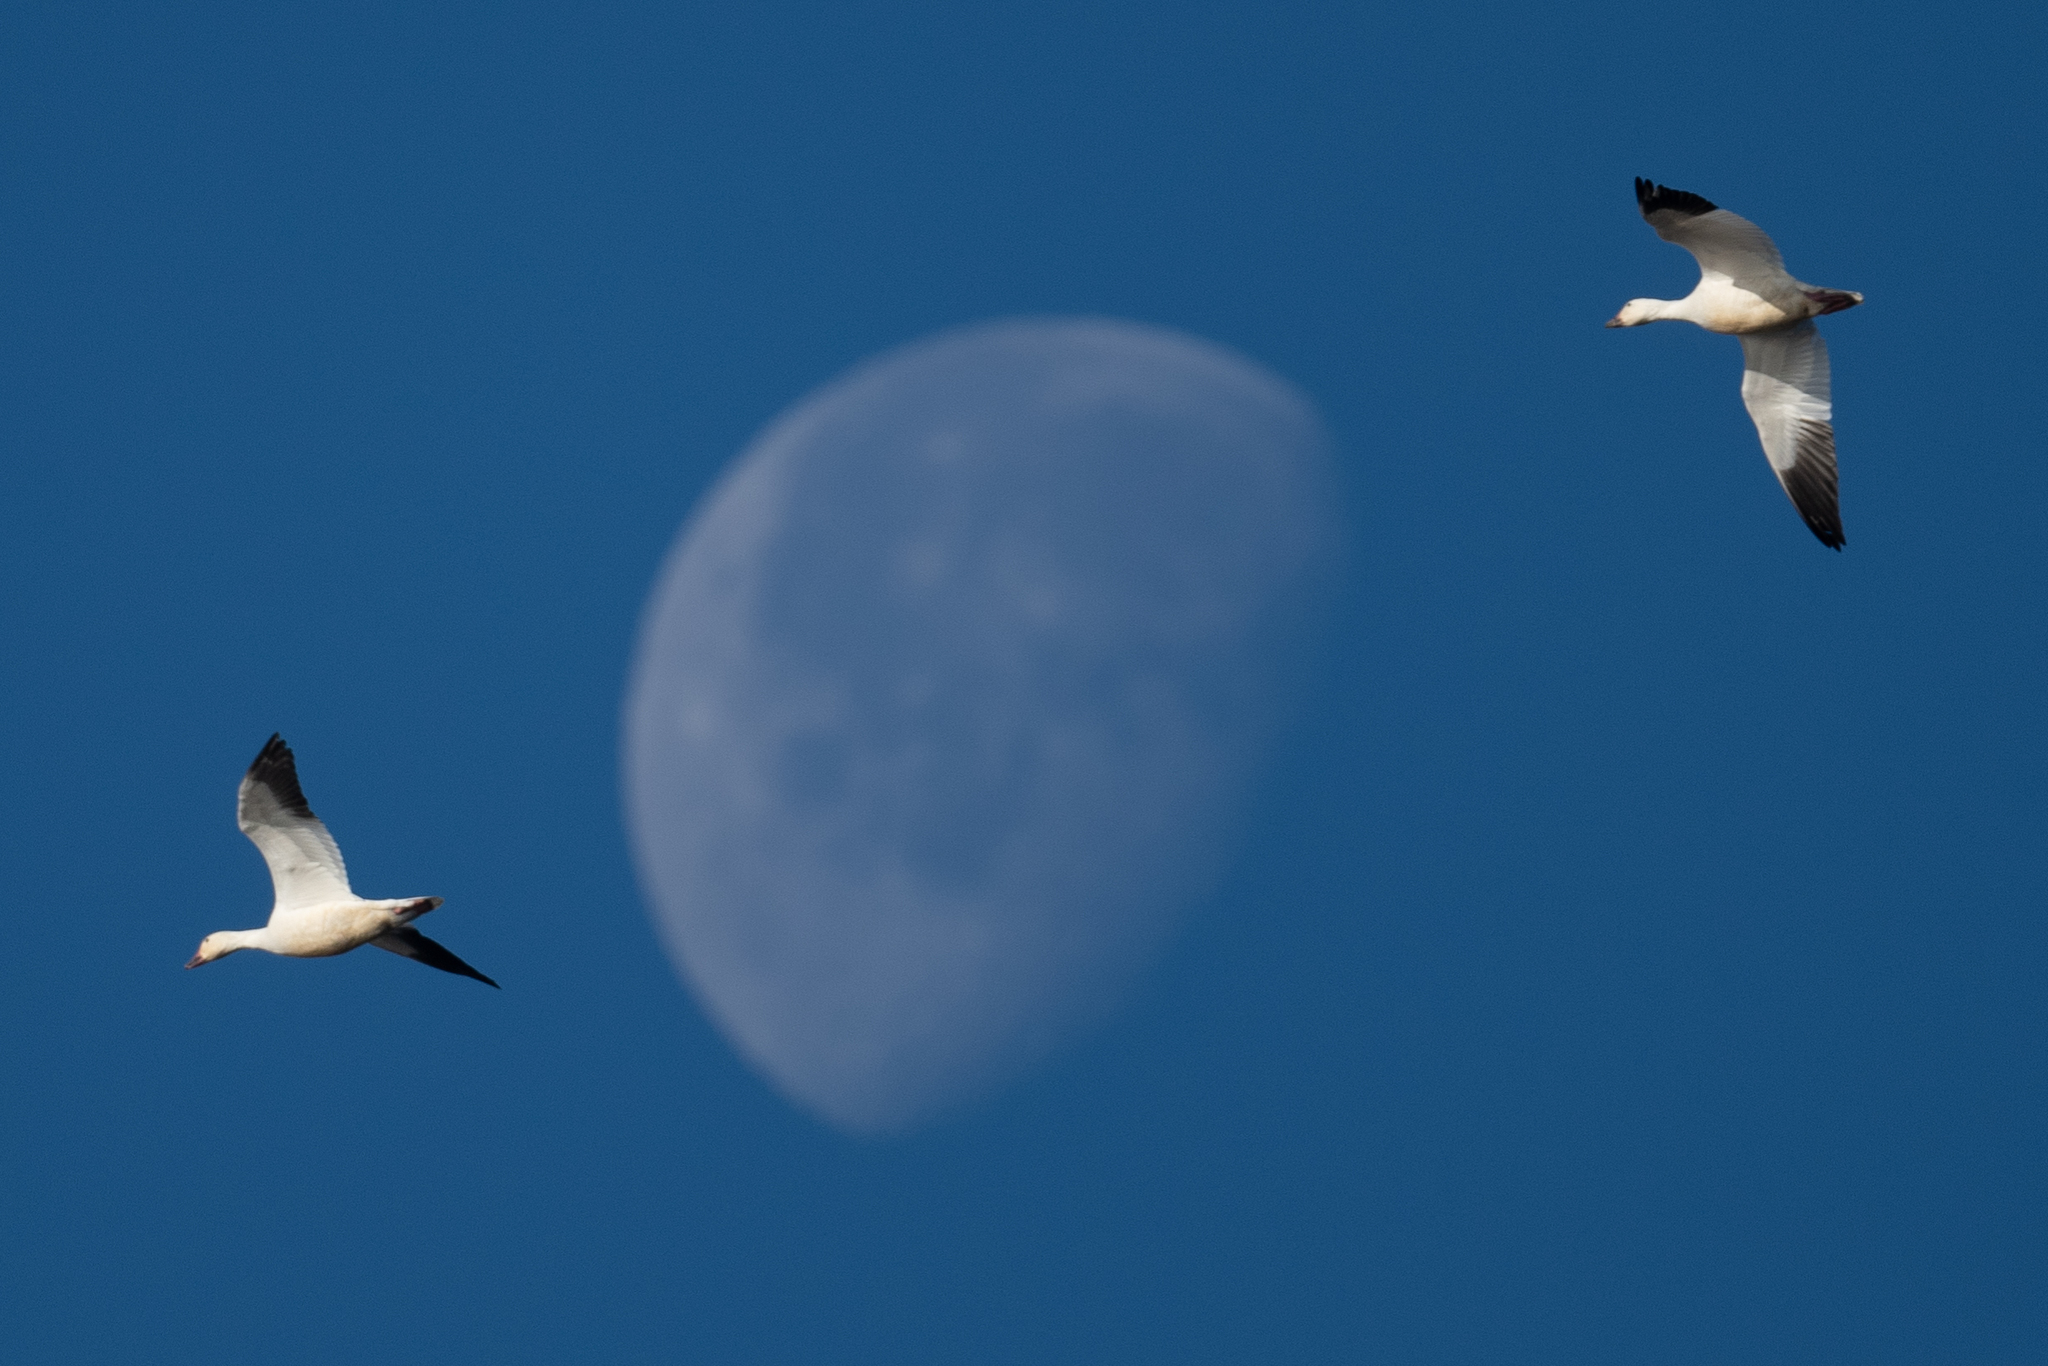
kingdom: Animalia
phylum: Chordata
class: Aves
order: Anseriformes
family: Anatidae
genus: Anser
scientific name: Anser caerulescens
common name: Snow goose
